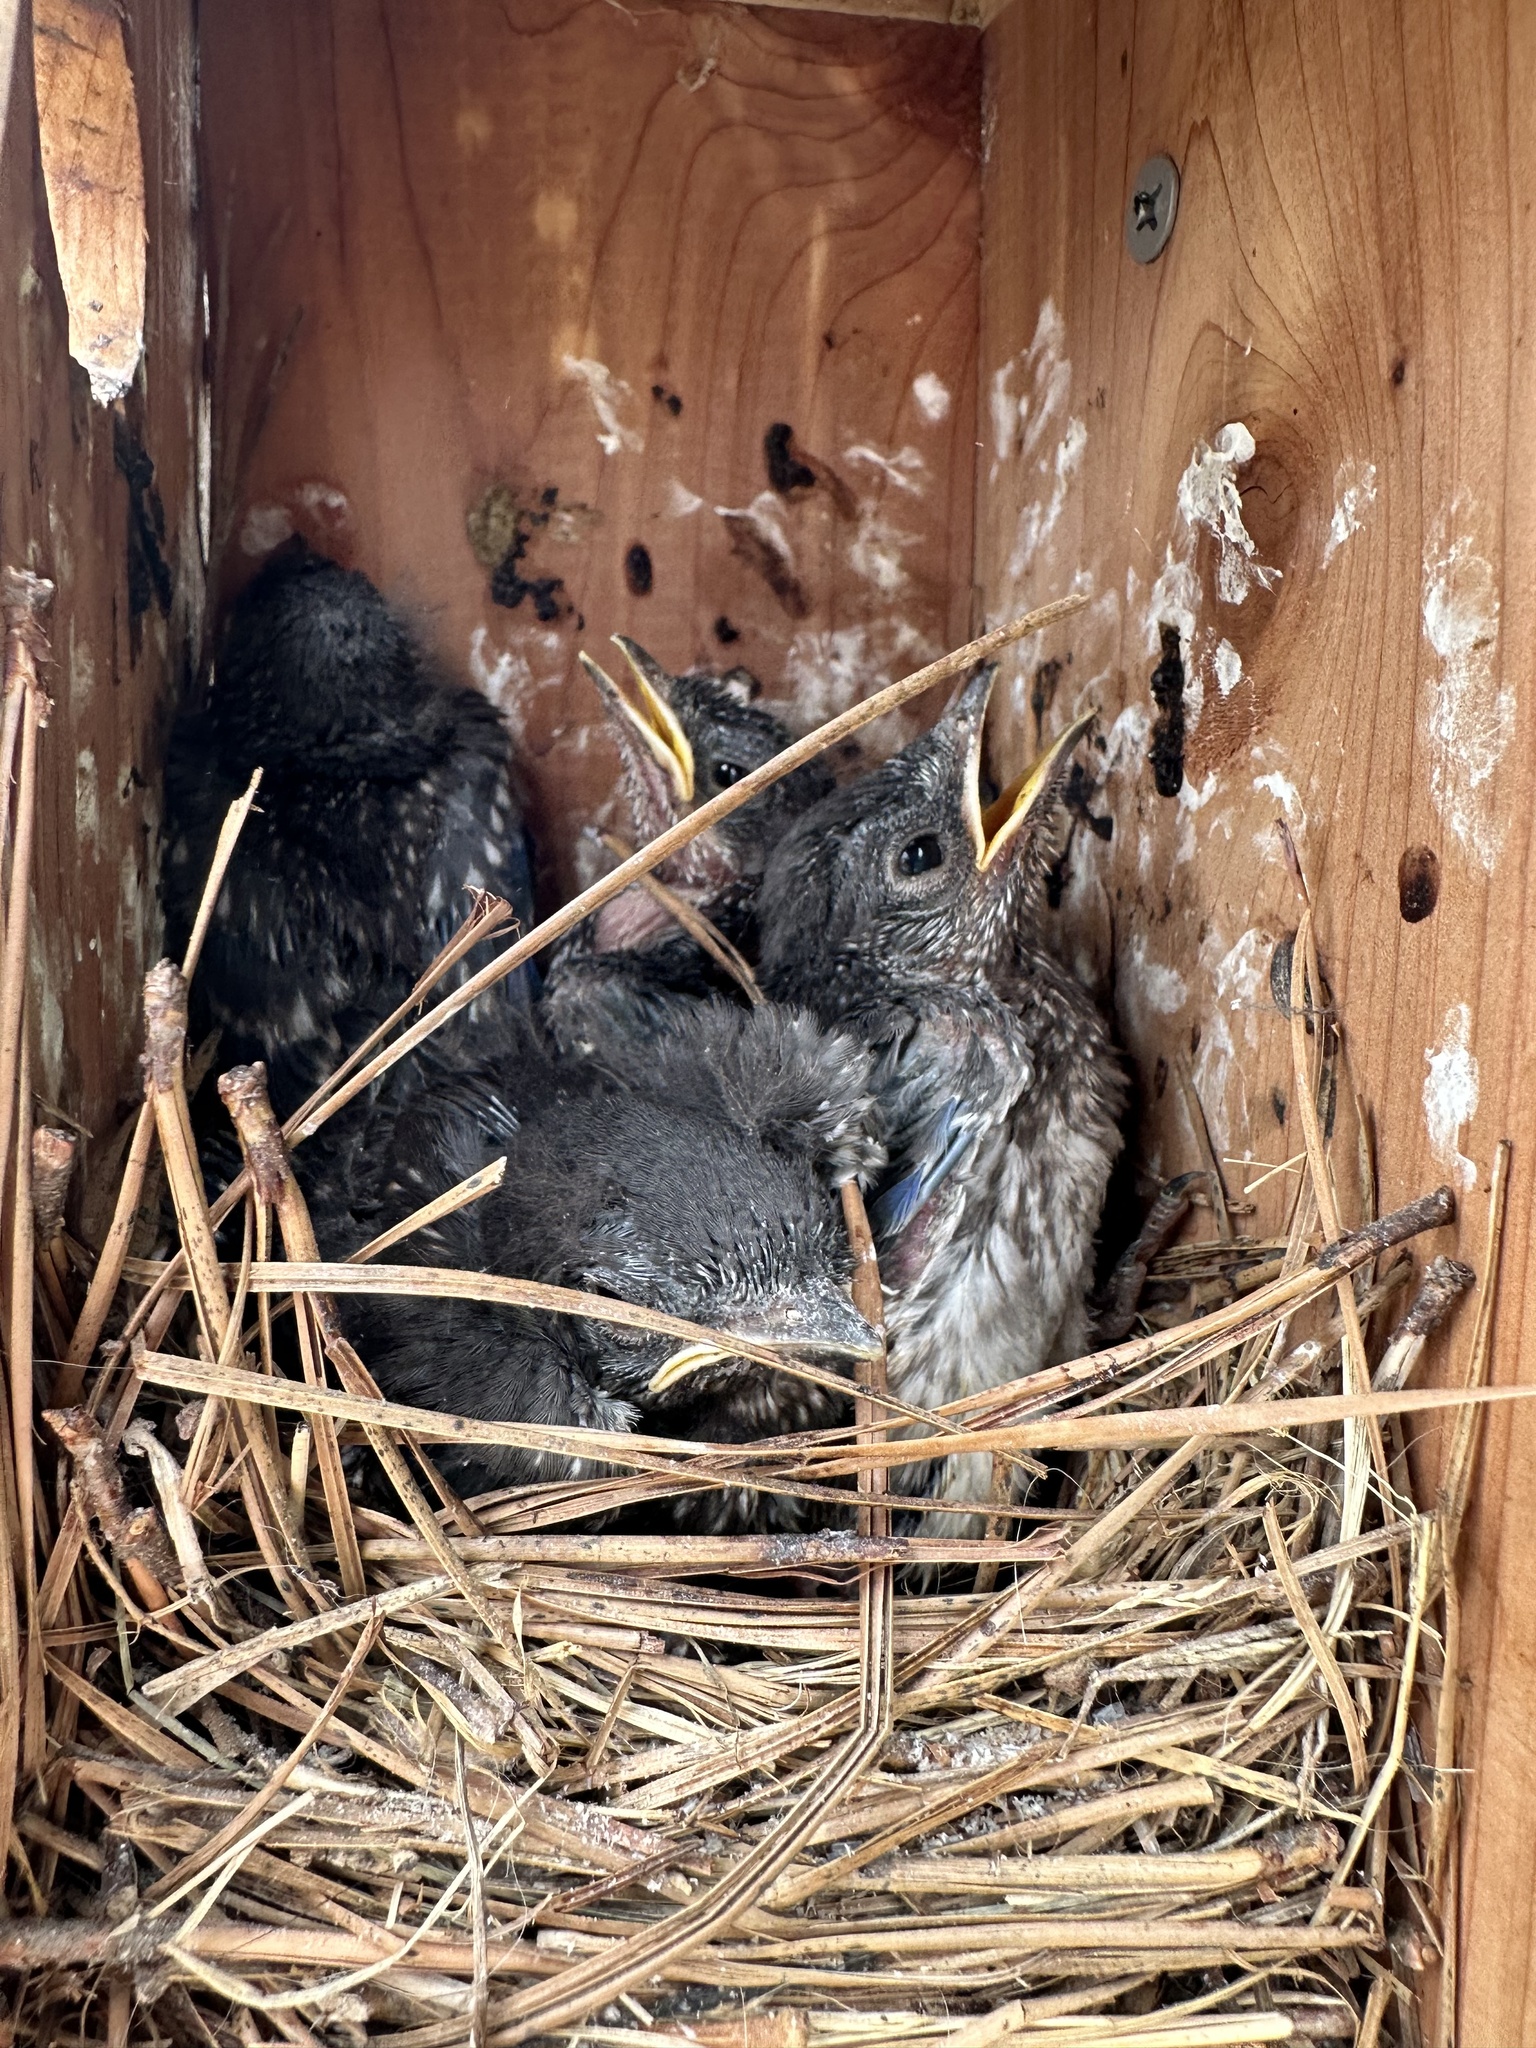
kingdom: Animalia
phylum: Chordata
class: Aves
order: Passeriformes
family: Turdidae
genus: Sialia
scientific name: Sialia sialis
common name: Eastern bluebird
